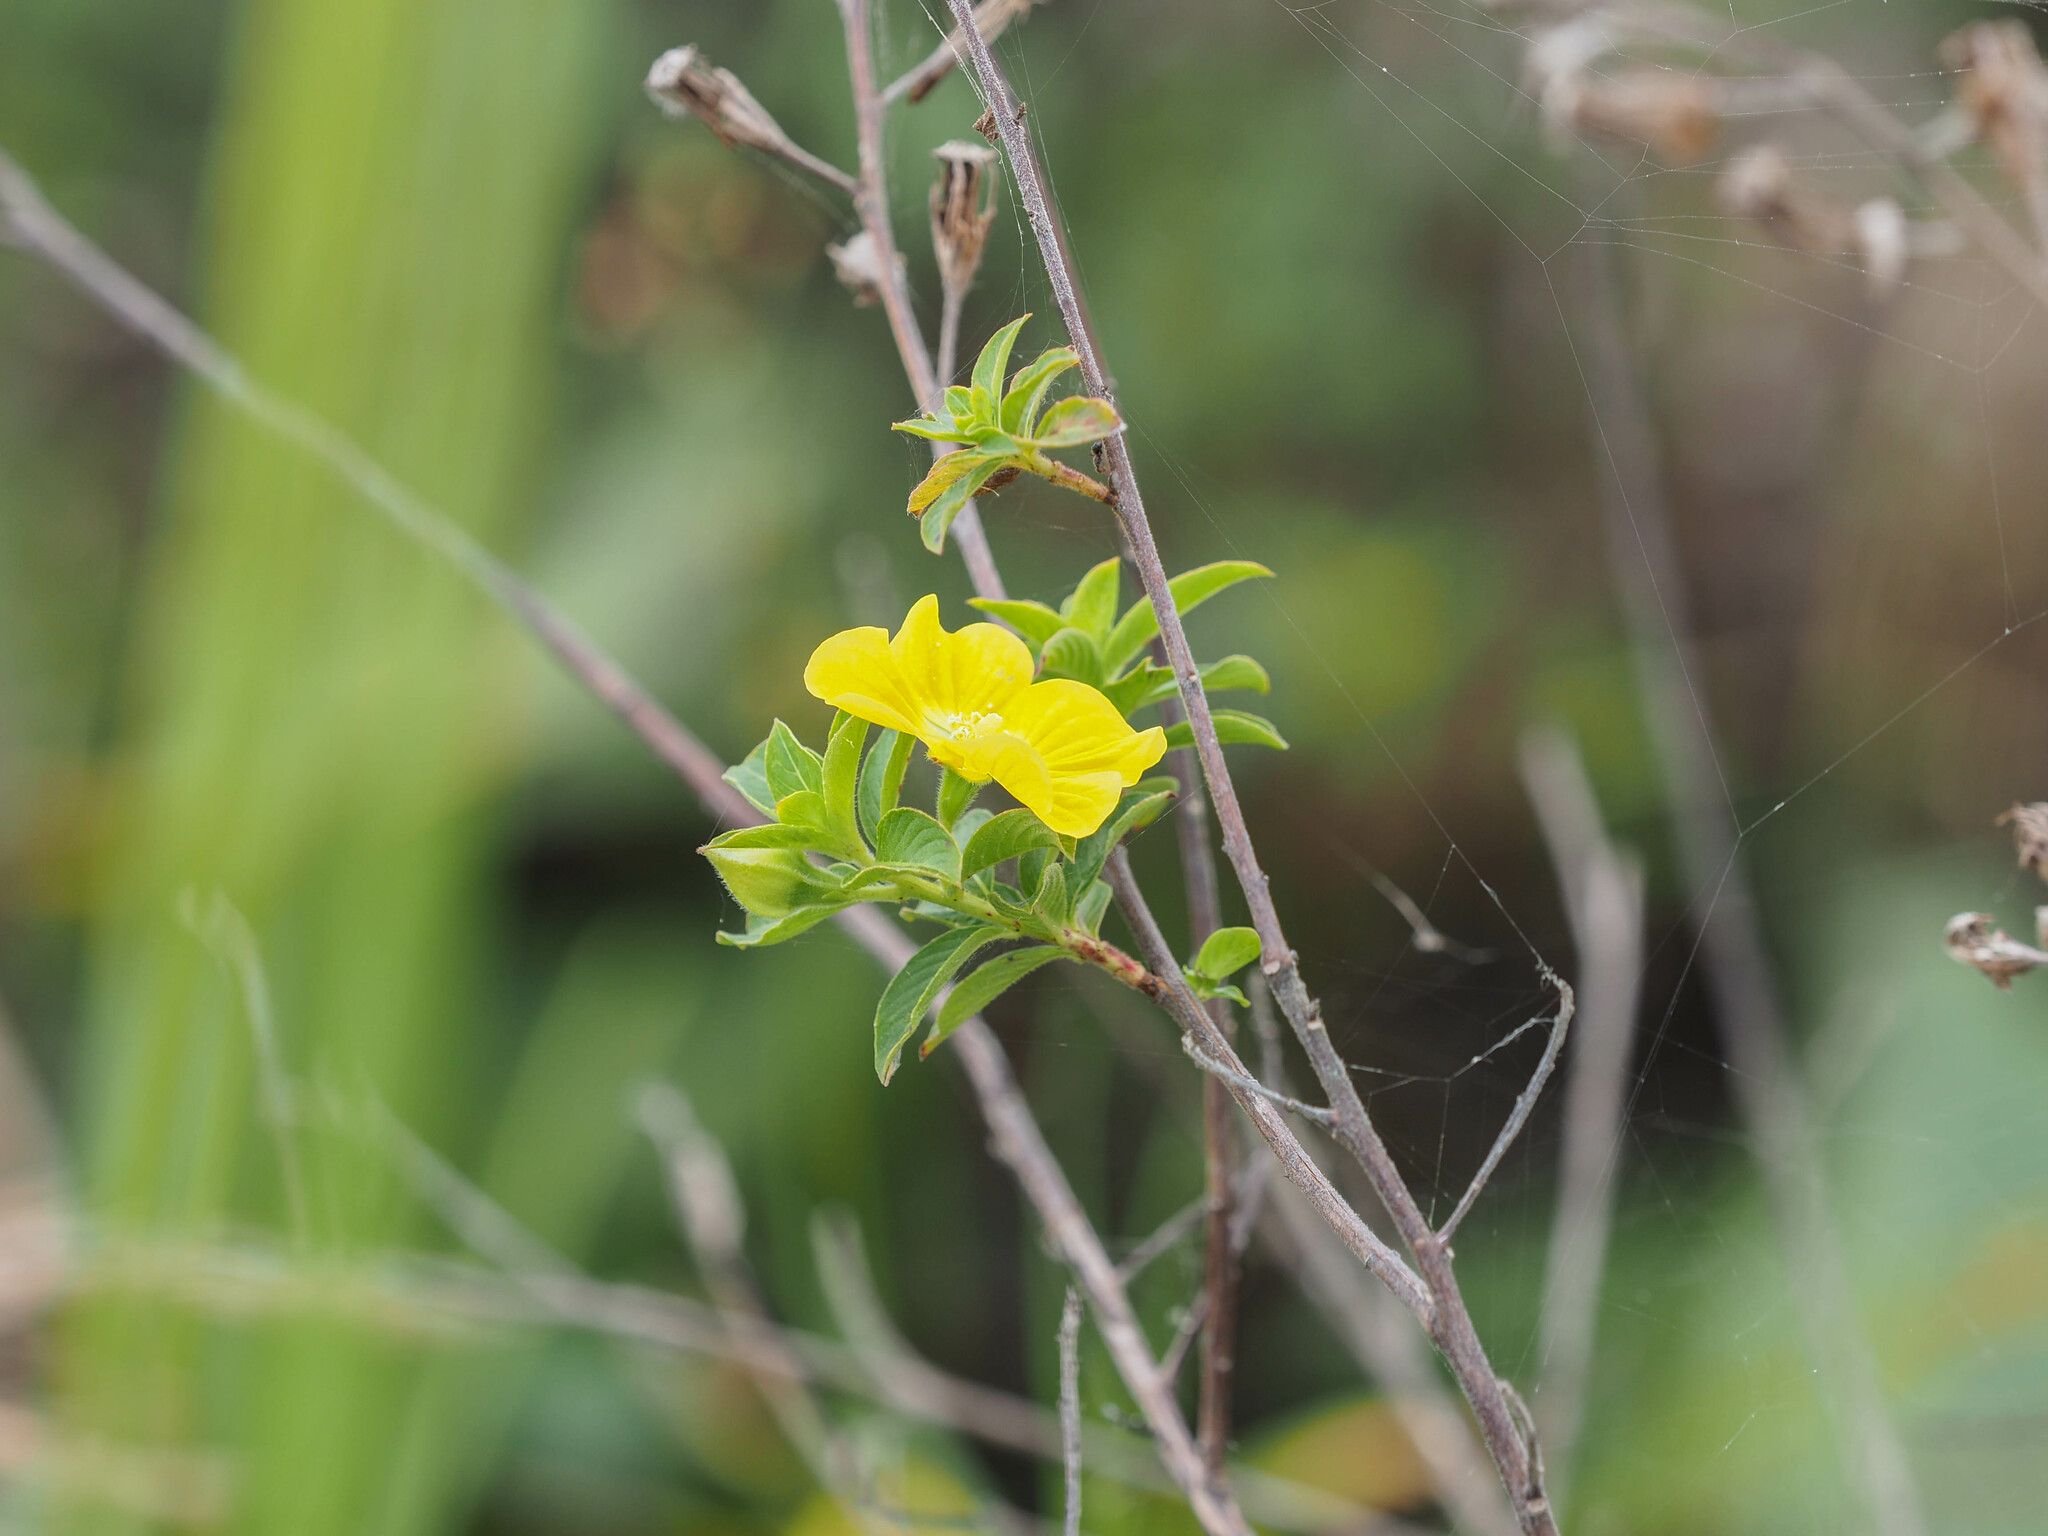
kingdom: Plantae
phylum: Tracheophyta
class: Magnoliopsida
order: Myrtales
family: Onagraceae
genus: Ludwigia
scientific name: Ludwigia peruviana
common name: Peruvian primrose-willow
